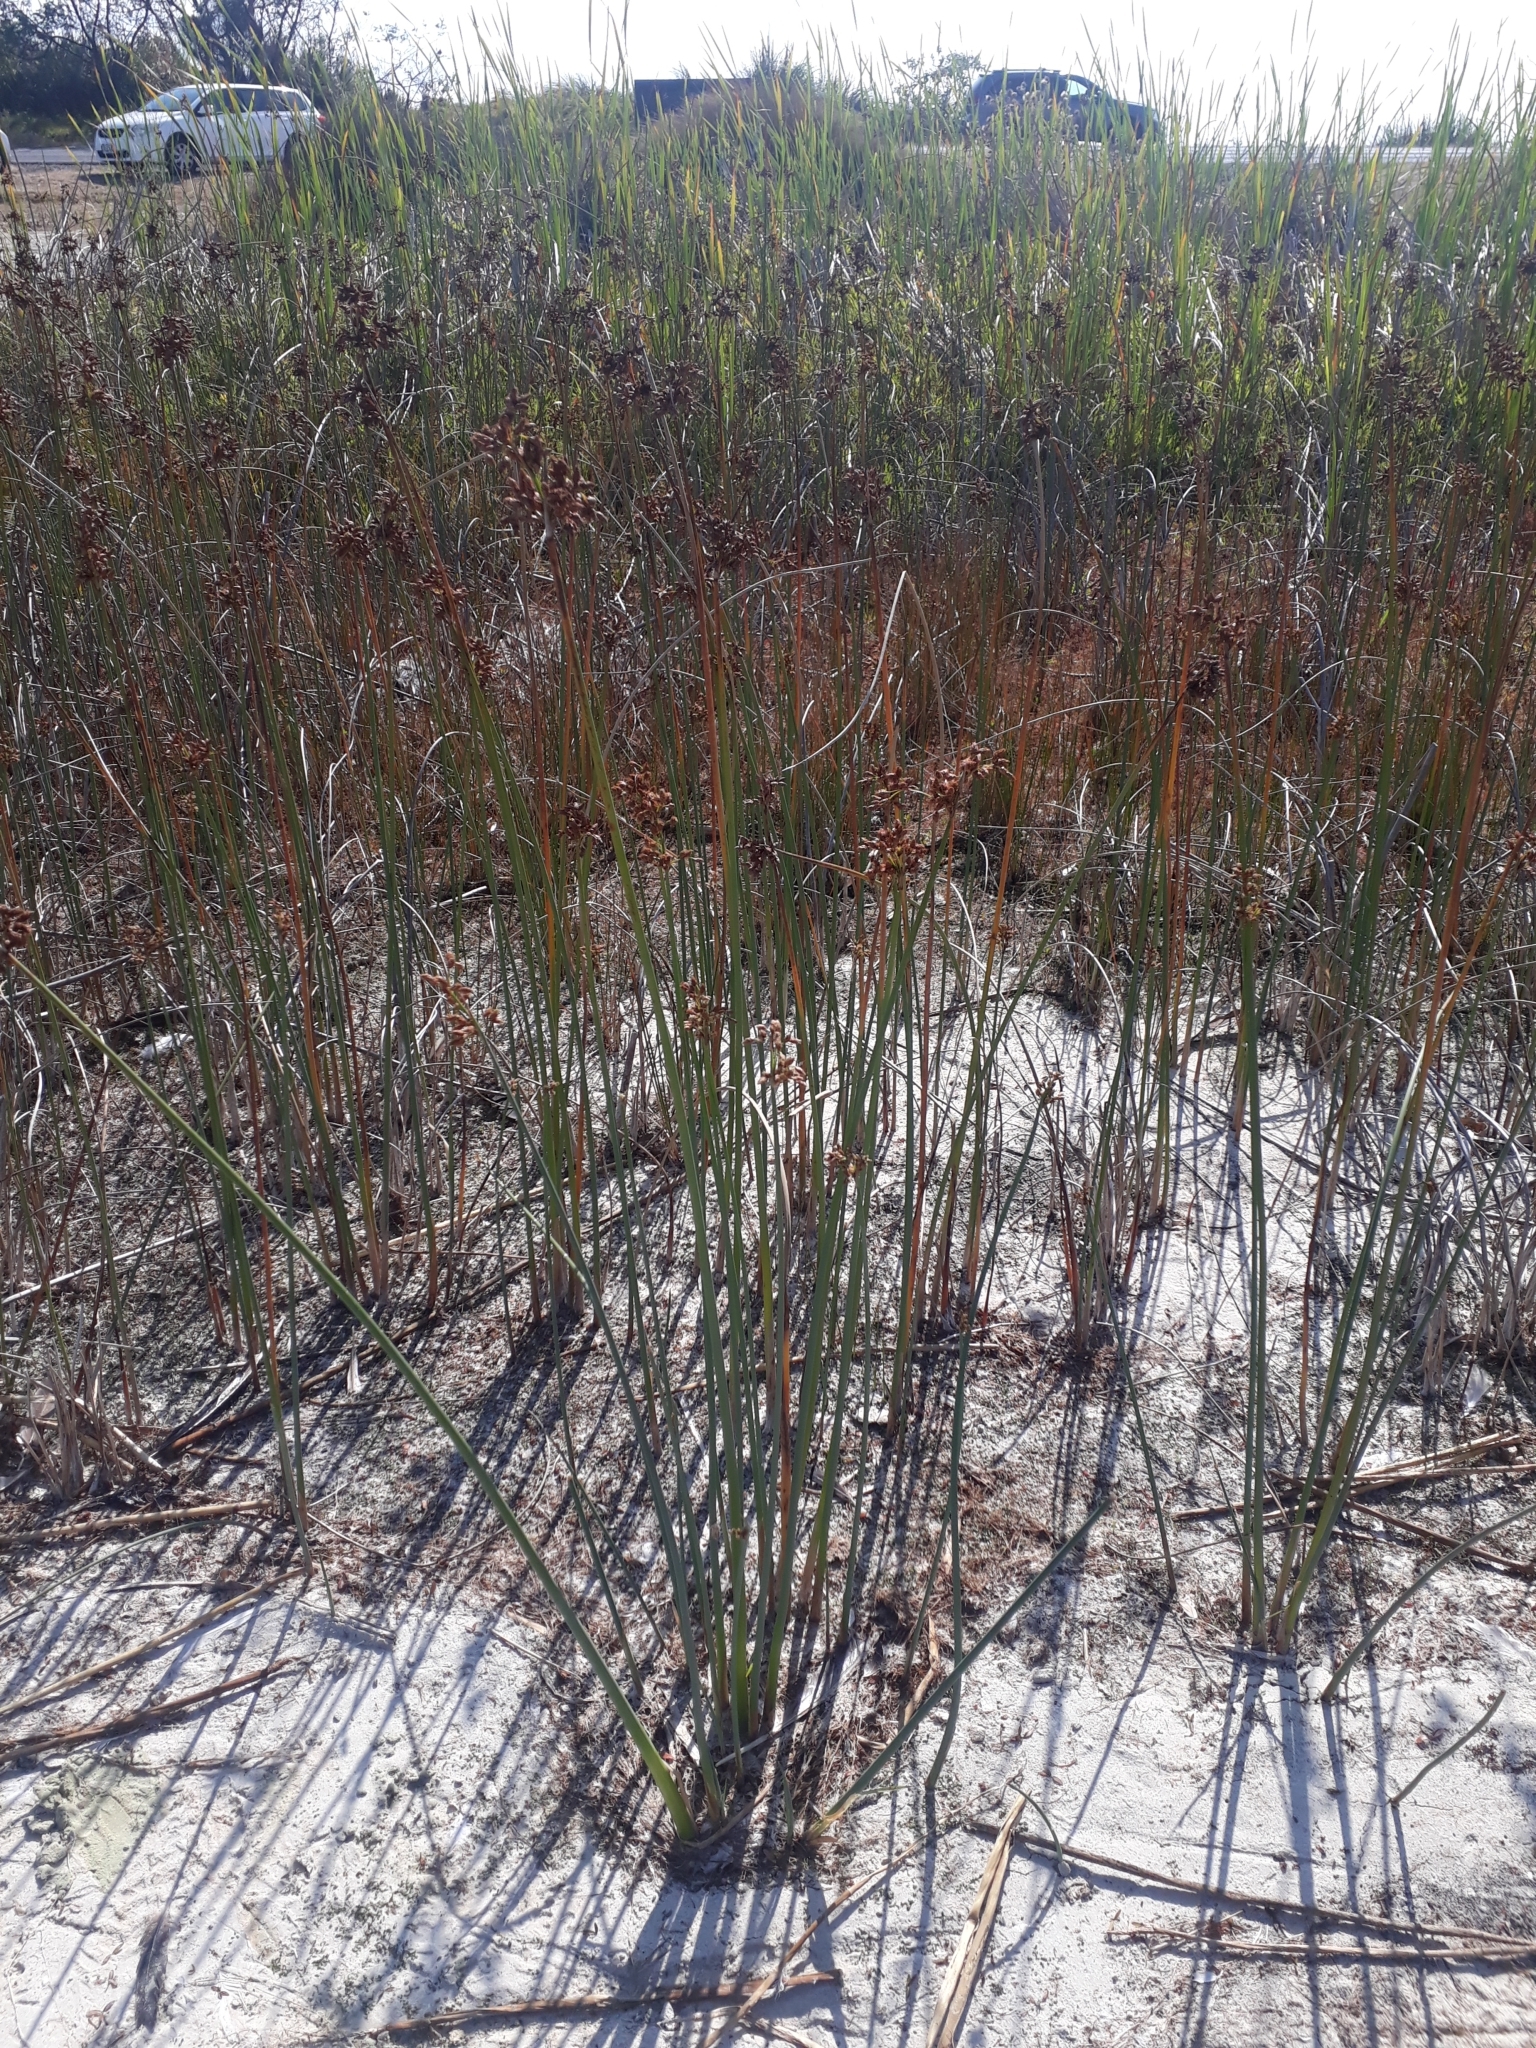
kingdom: Plantae
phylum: Tracheophyta
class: Liliopsida
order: Poales
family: Cyperaceae
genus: Schoenoplectus
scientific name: Schoenoplectus tabernaemontani
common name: Grey club-rush
